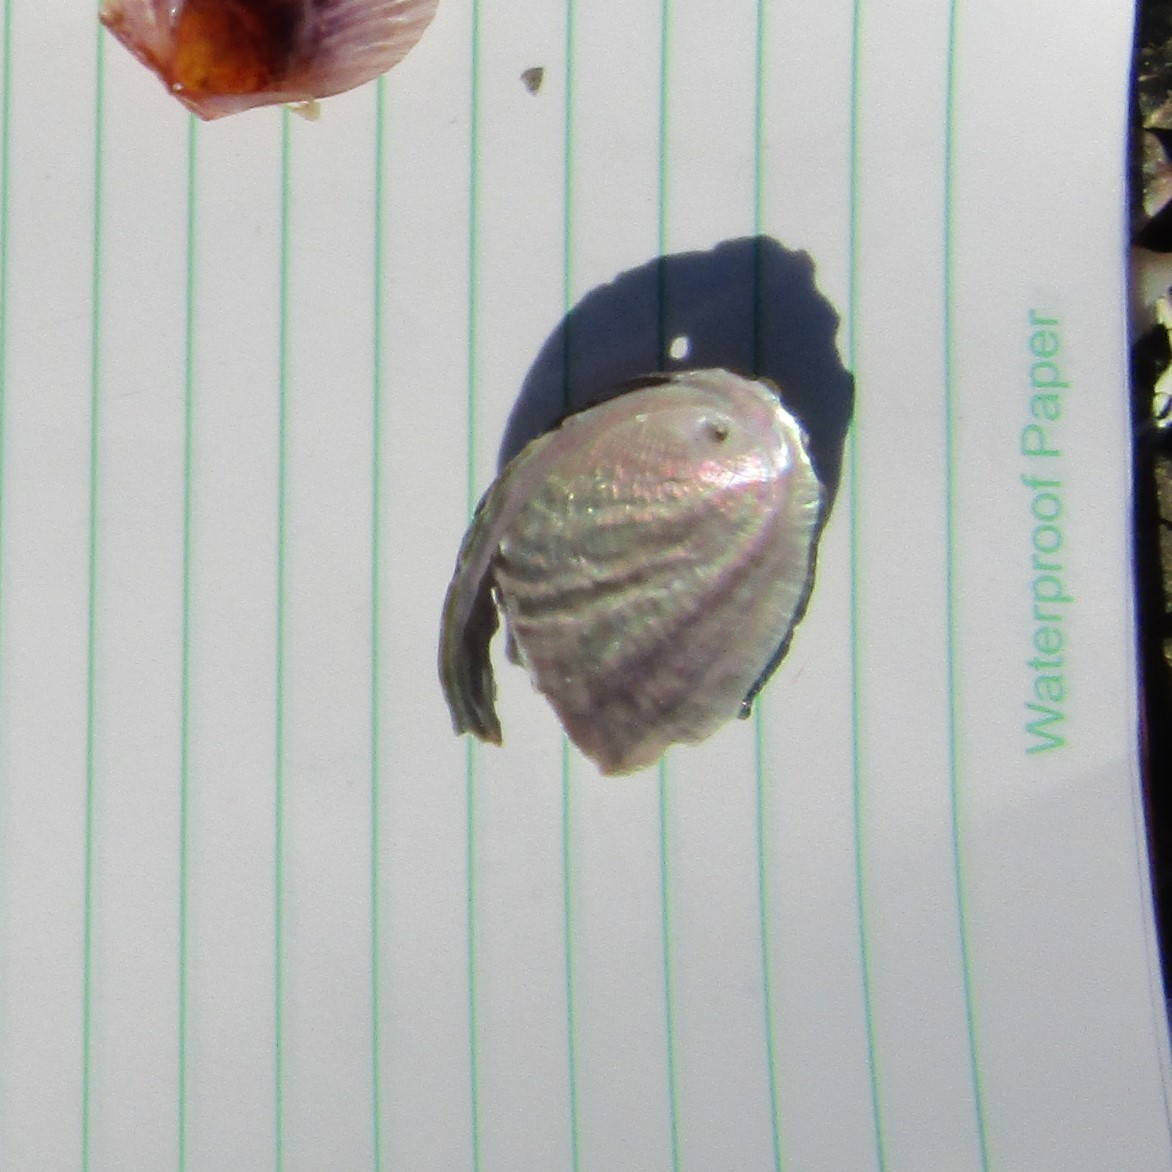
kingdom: Animalia
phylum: Mollusca
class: Gastropoda
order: Lepetellida
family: Haliotidae
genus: Haliotis
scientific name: Haliotis iris
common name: Abalone
